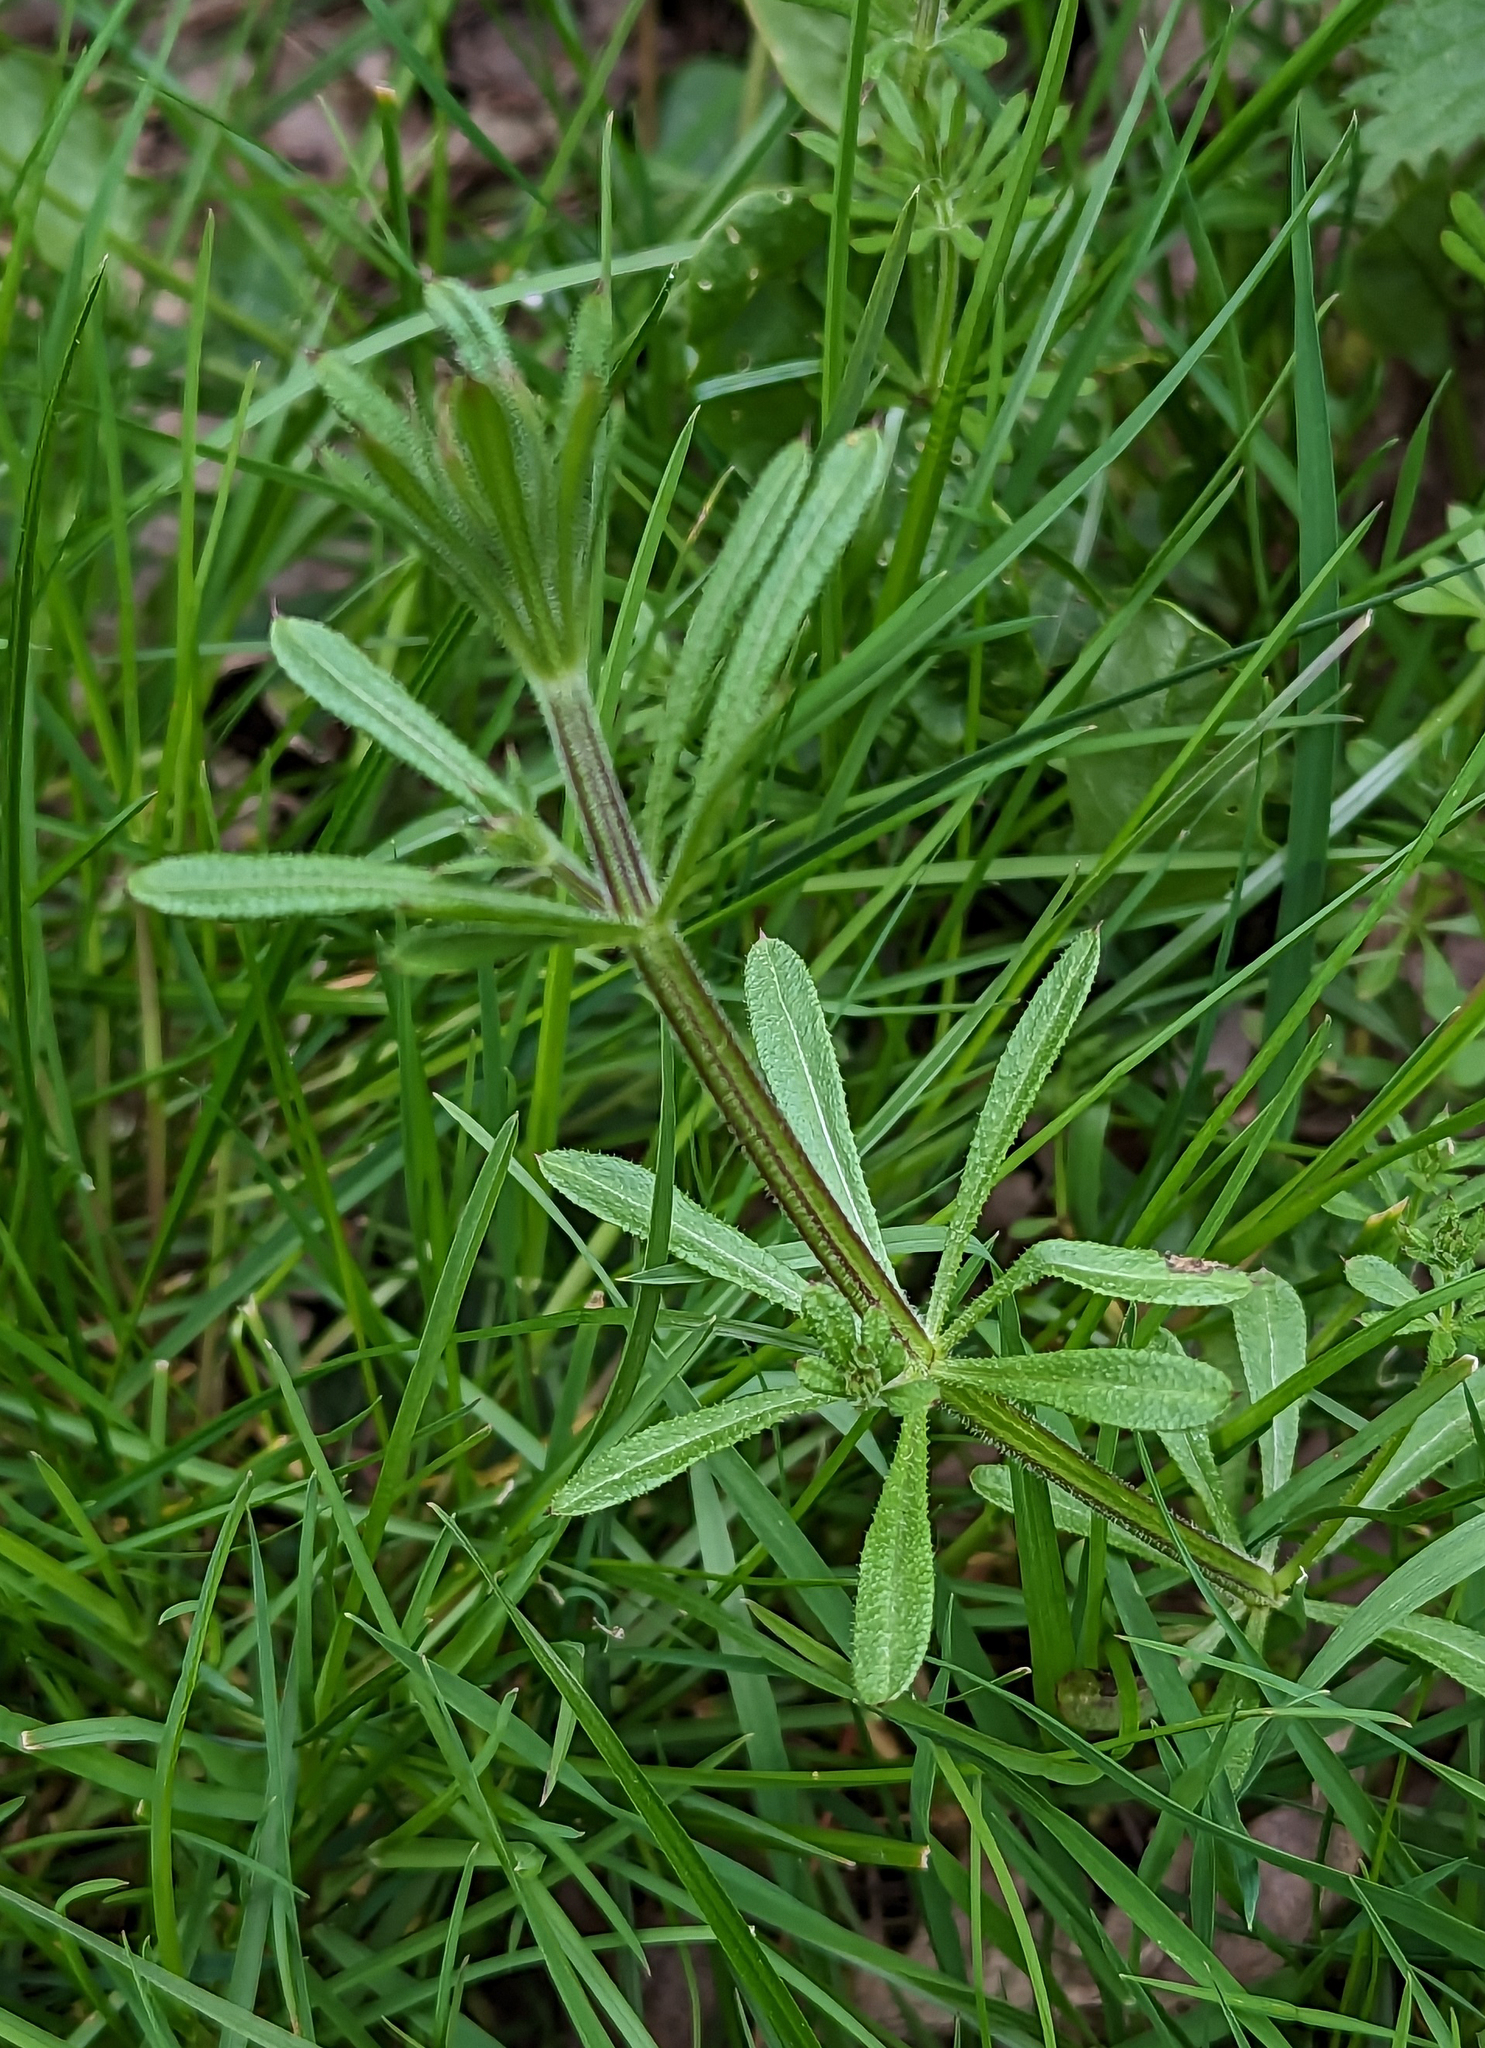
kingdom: Plantae
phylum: Tracheophyta
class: Magnoliopsida
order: Gentianales
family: Rubiaceae
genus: Galium
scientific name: Galium aparine
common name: Cleavers
